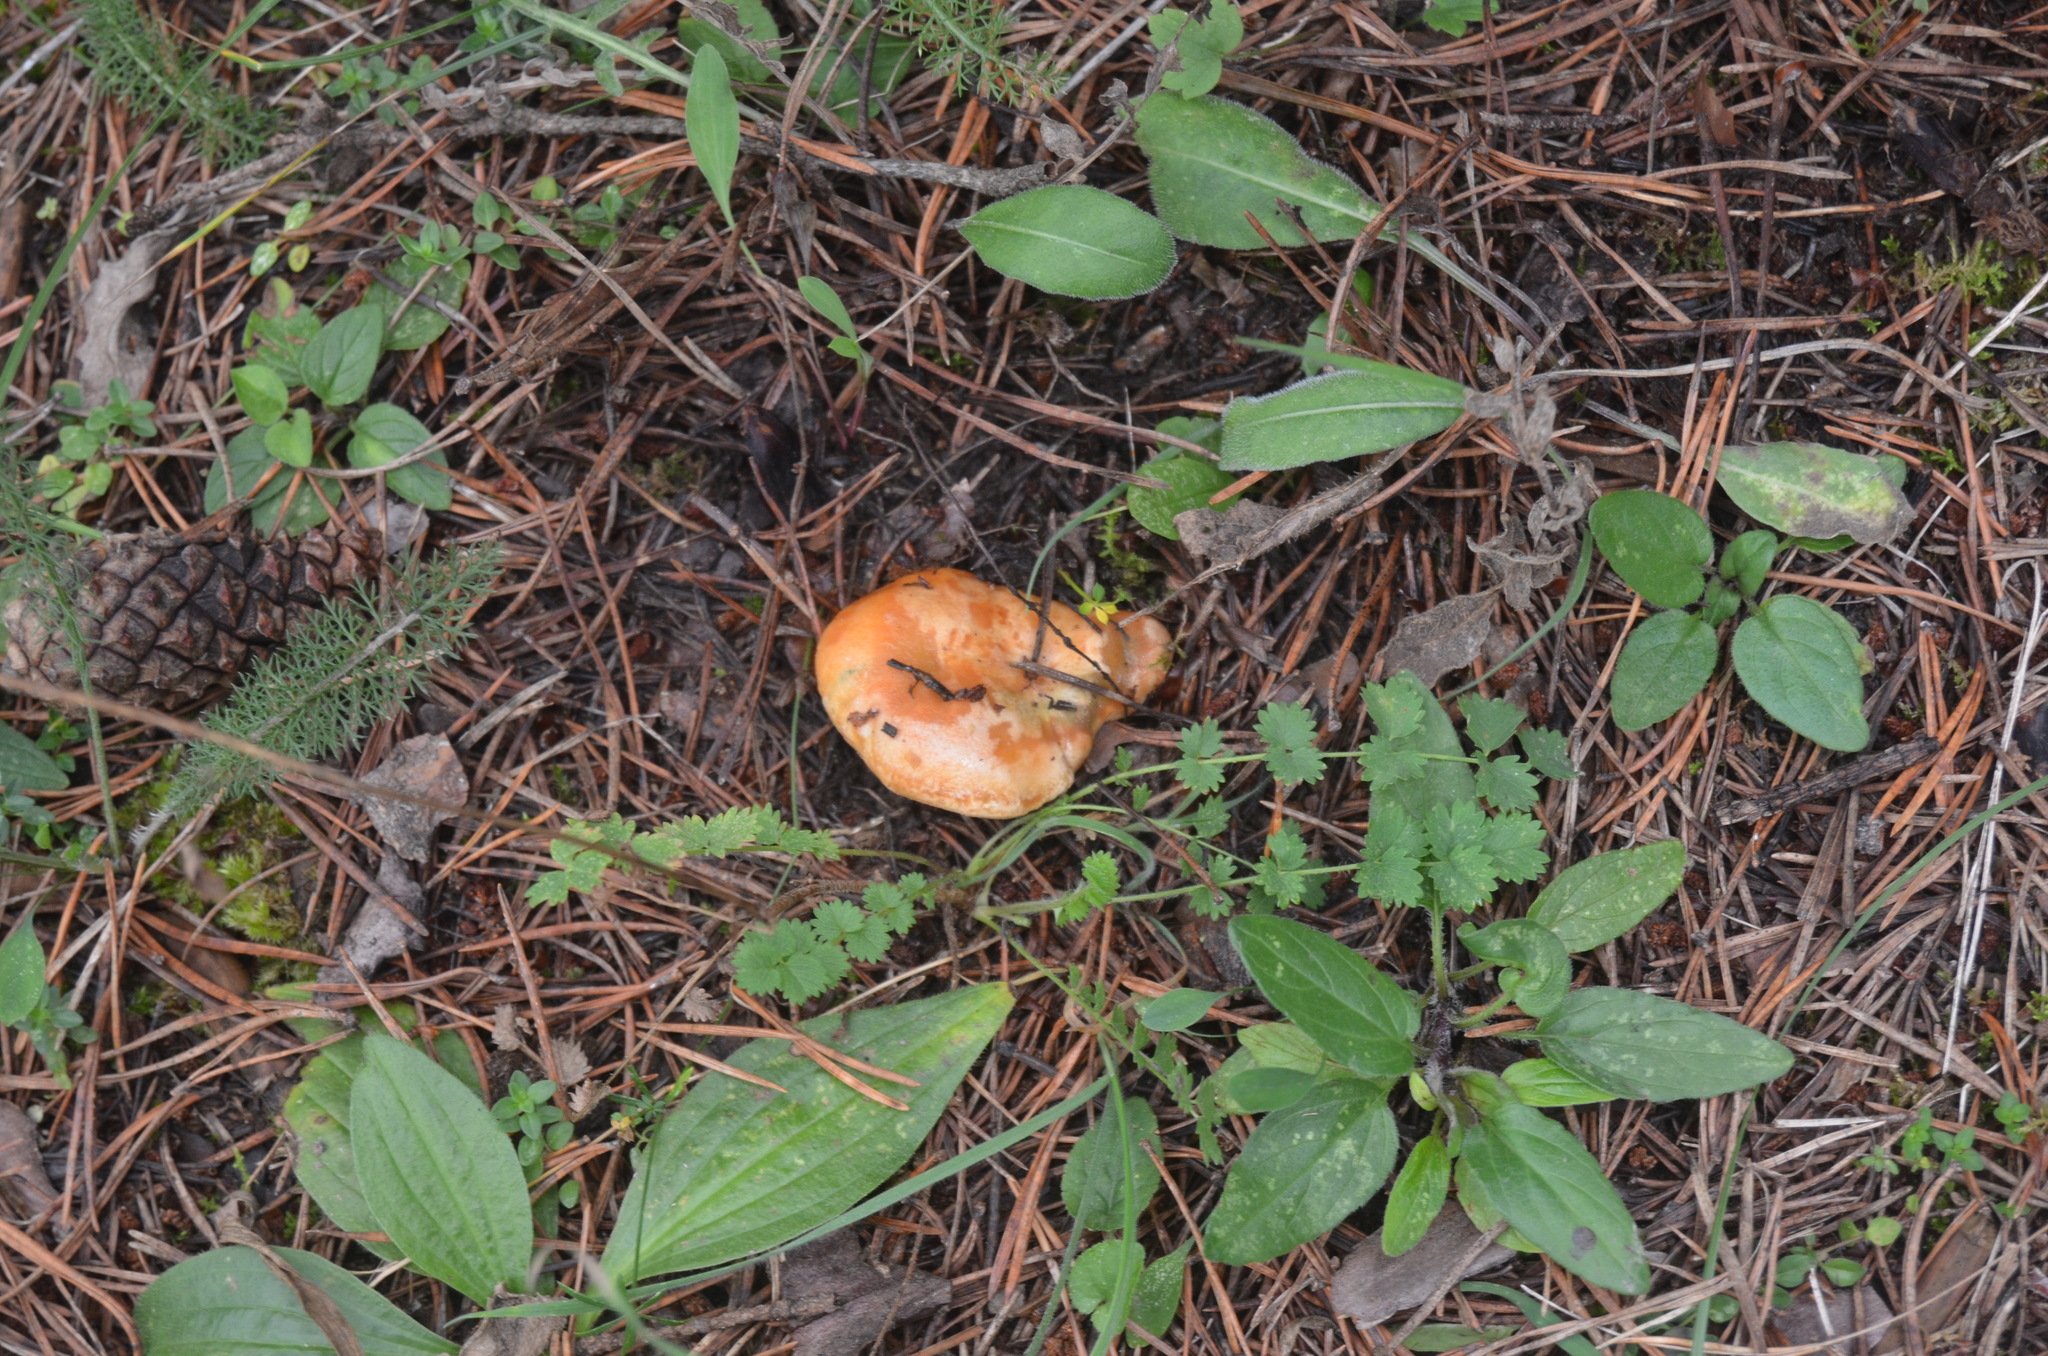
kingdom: Fungi
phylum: Basidiomycota
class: Agaricomycetes
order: Russulales
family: Russulaceae
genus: Lactarius
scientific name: Lactarius deliciosus
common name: Saffron milk-cap
